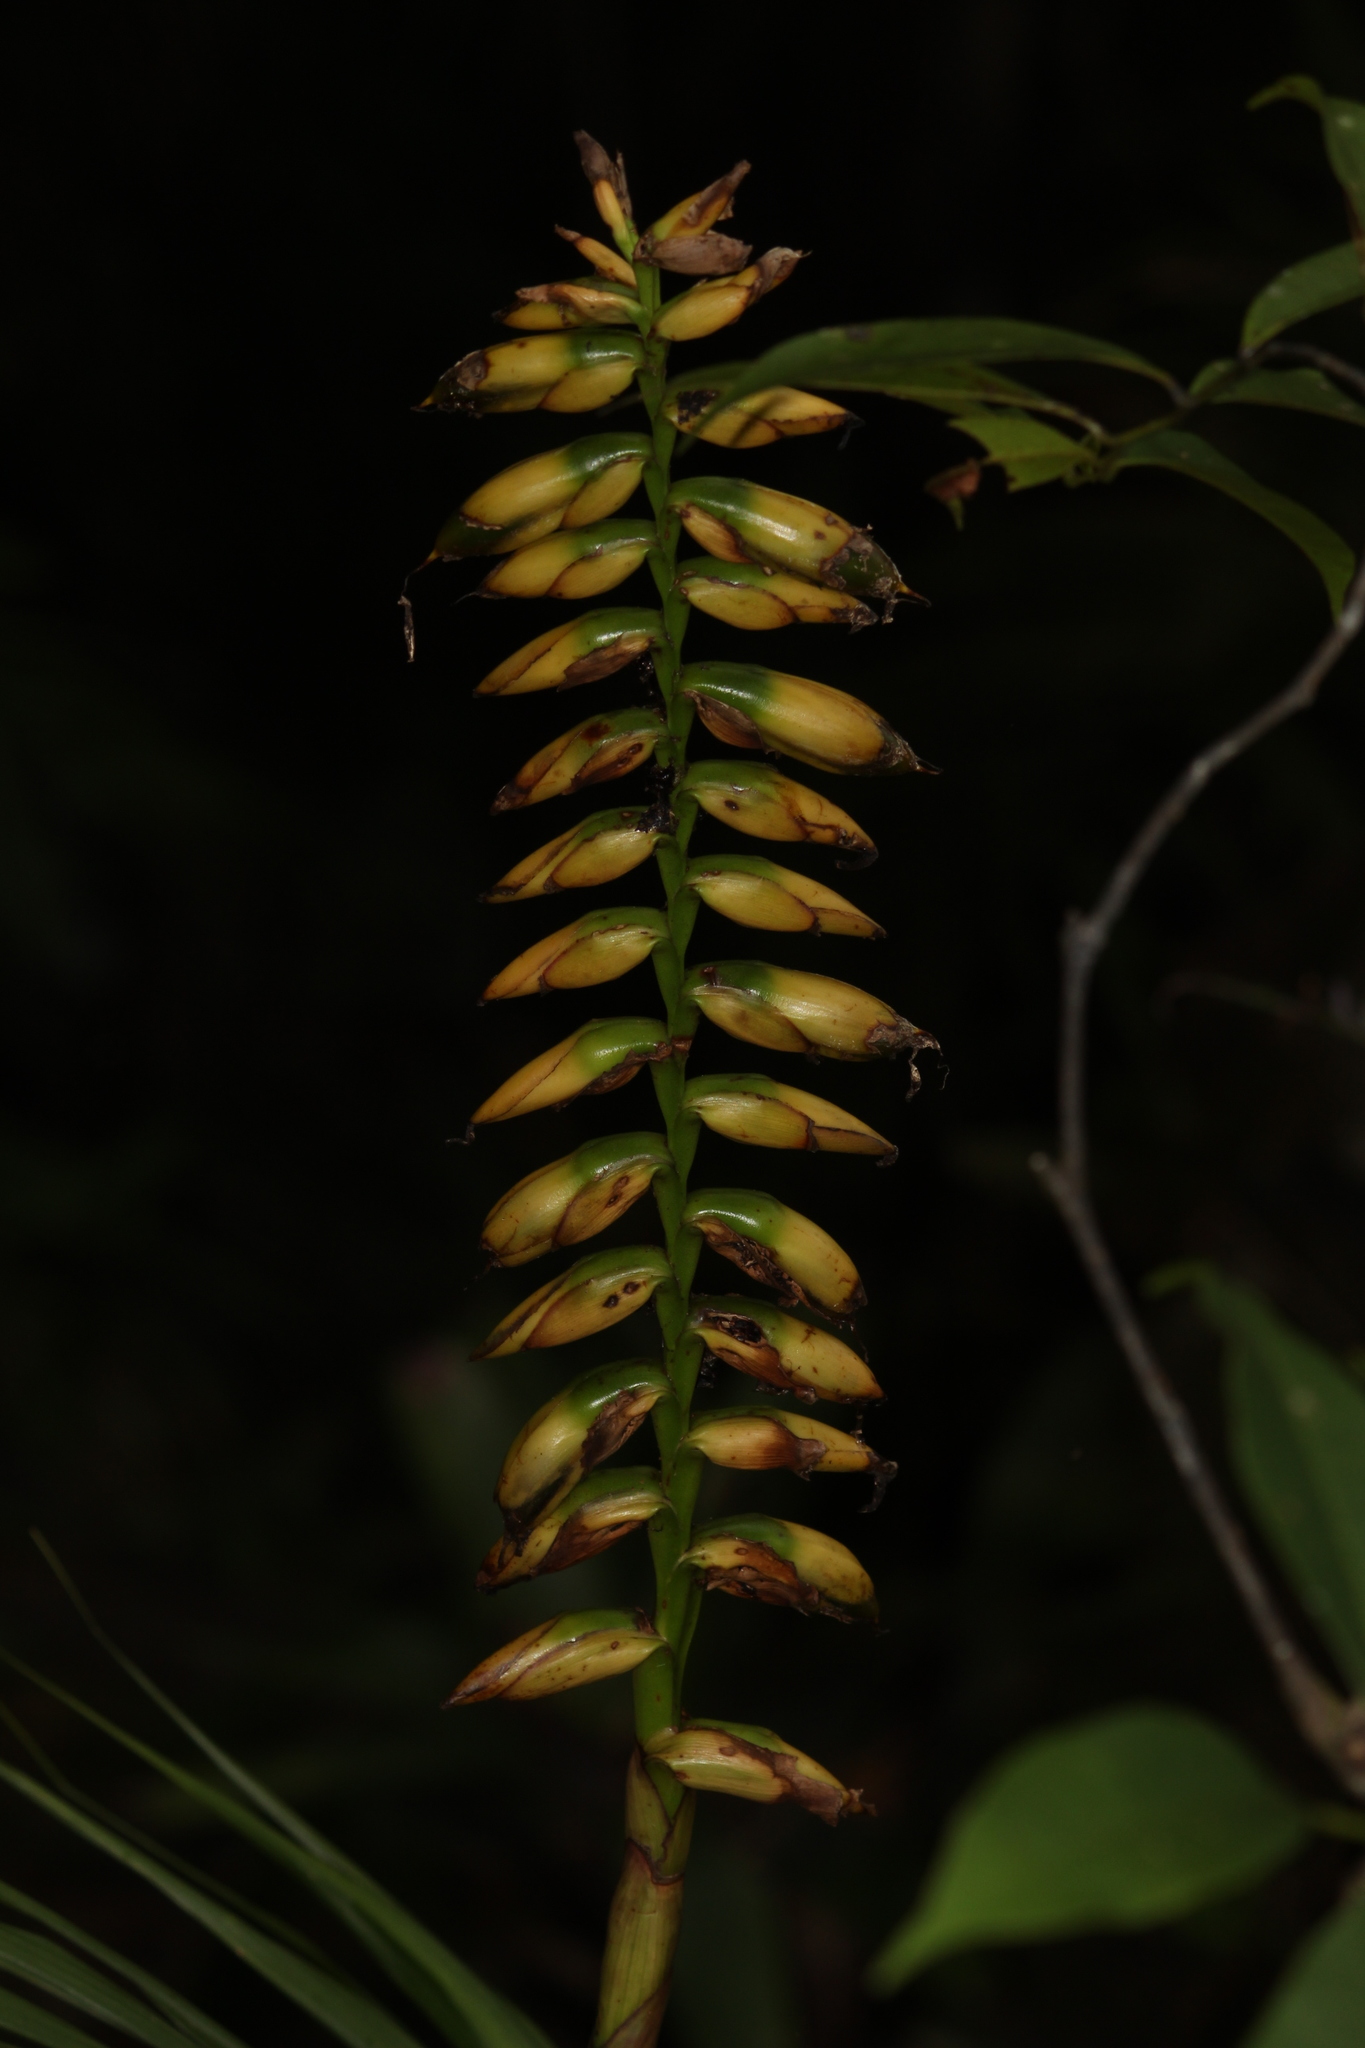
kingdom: Plantae
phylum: Tracheophyta
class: Liliopsida
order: Poales
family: Bromeliaceae
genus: Vriesea
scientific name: Vriesea platynema
